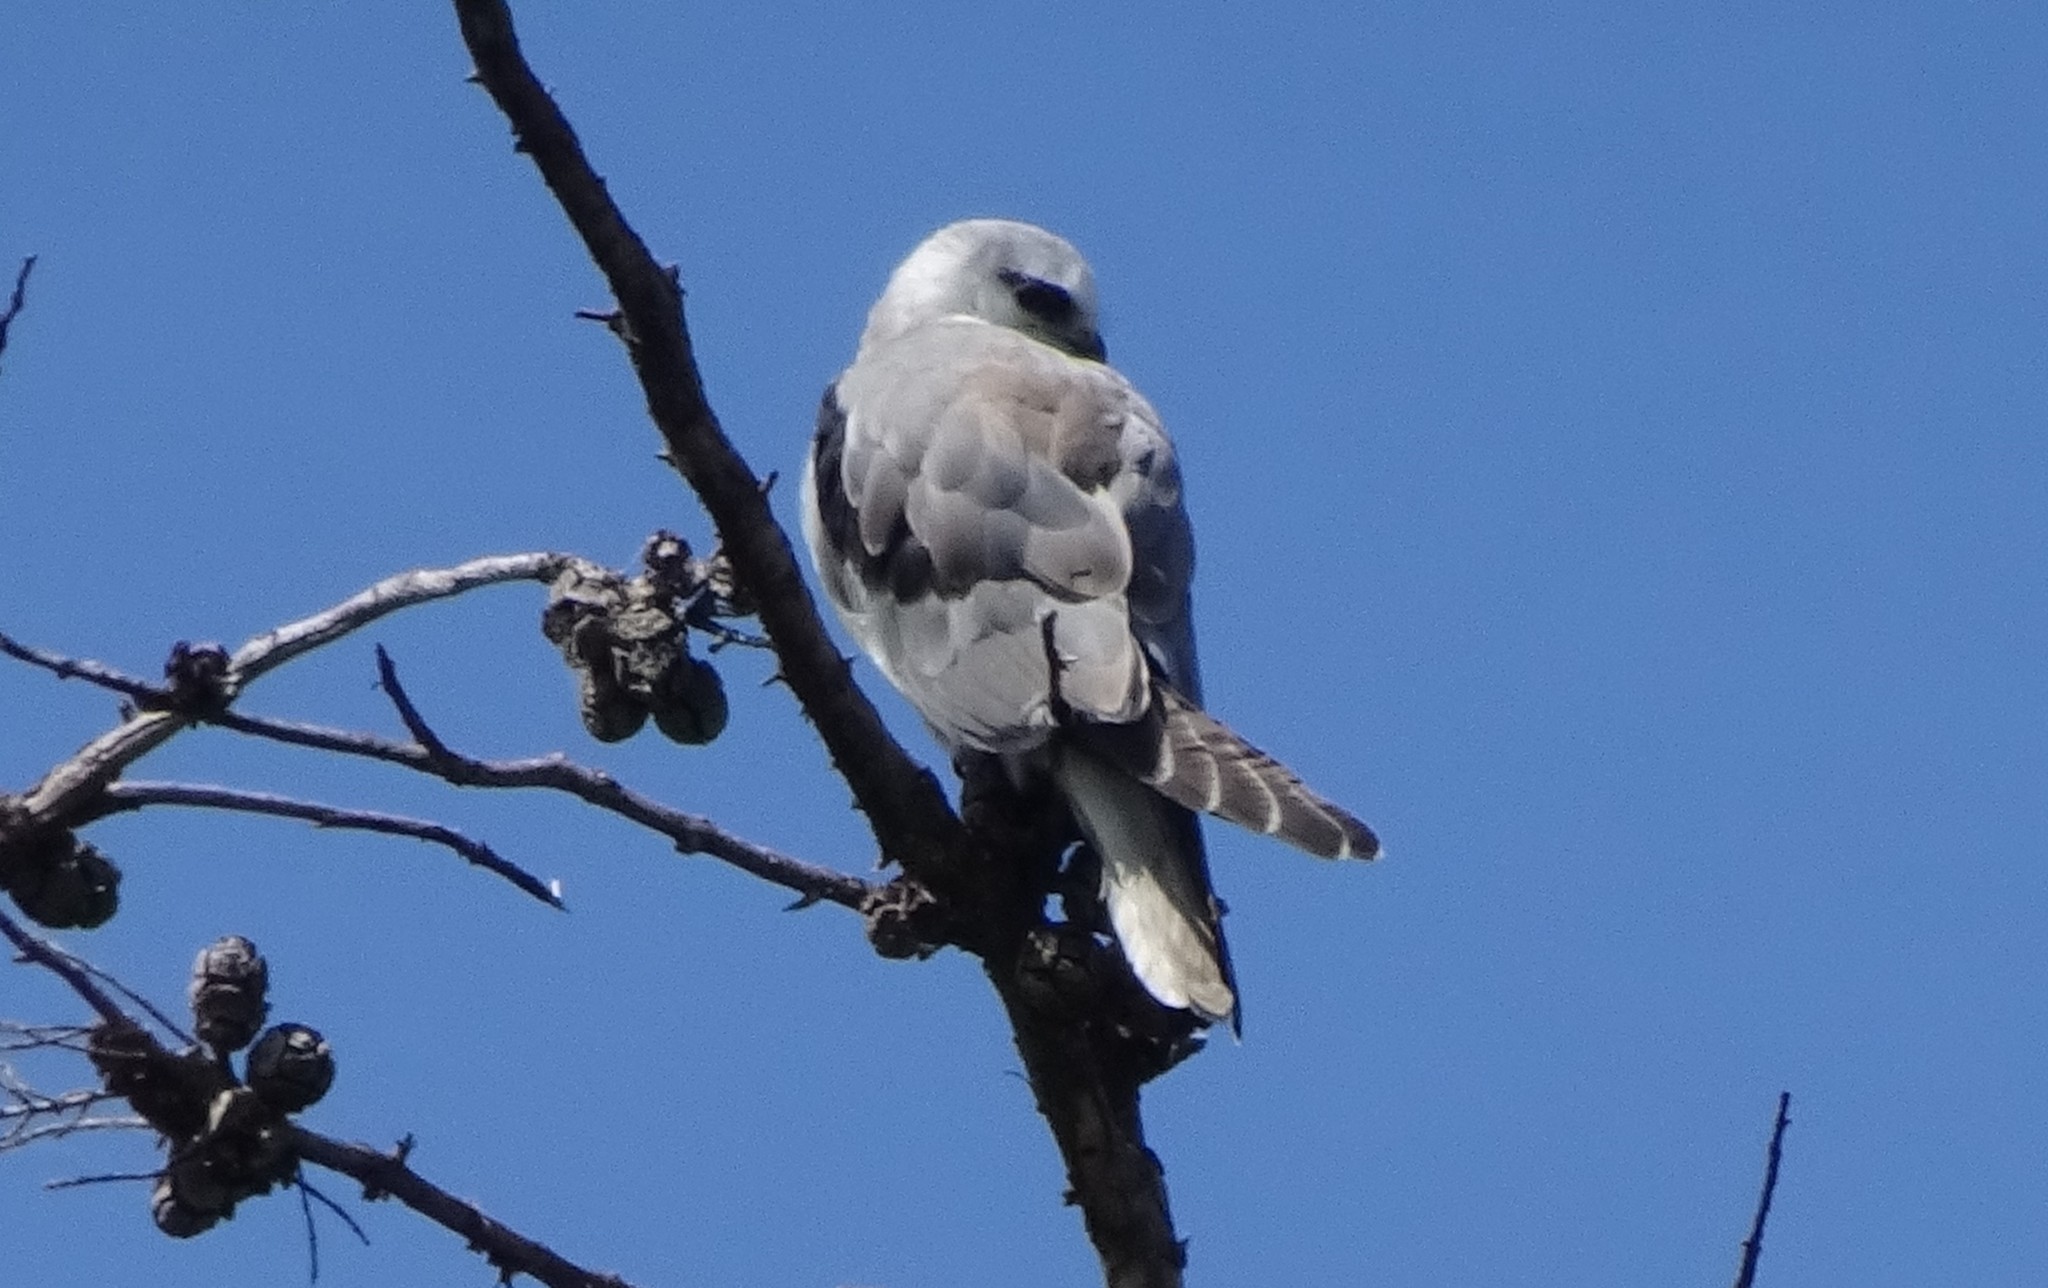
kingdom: Animalia
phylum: Chordata
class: Aves
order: Accipitriformes
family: Accipitridae
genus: Elanus
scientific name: Elanus axillaris
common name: Black-shouldered kite
